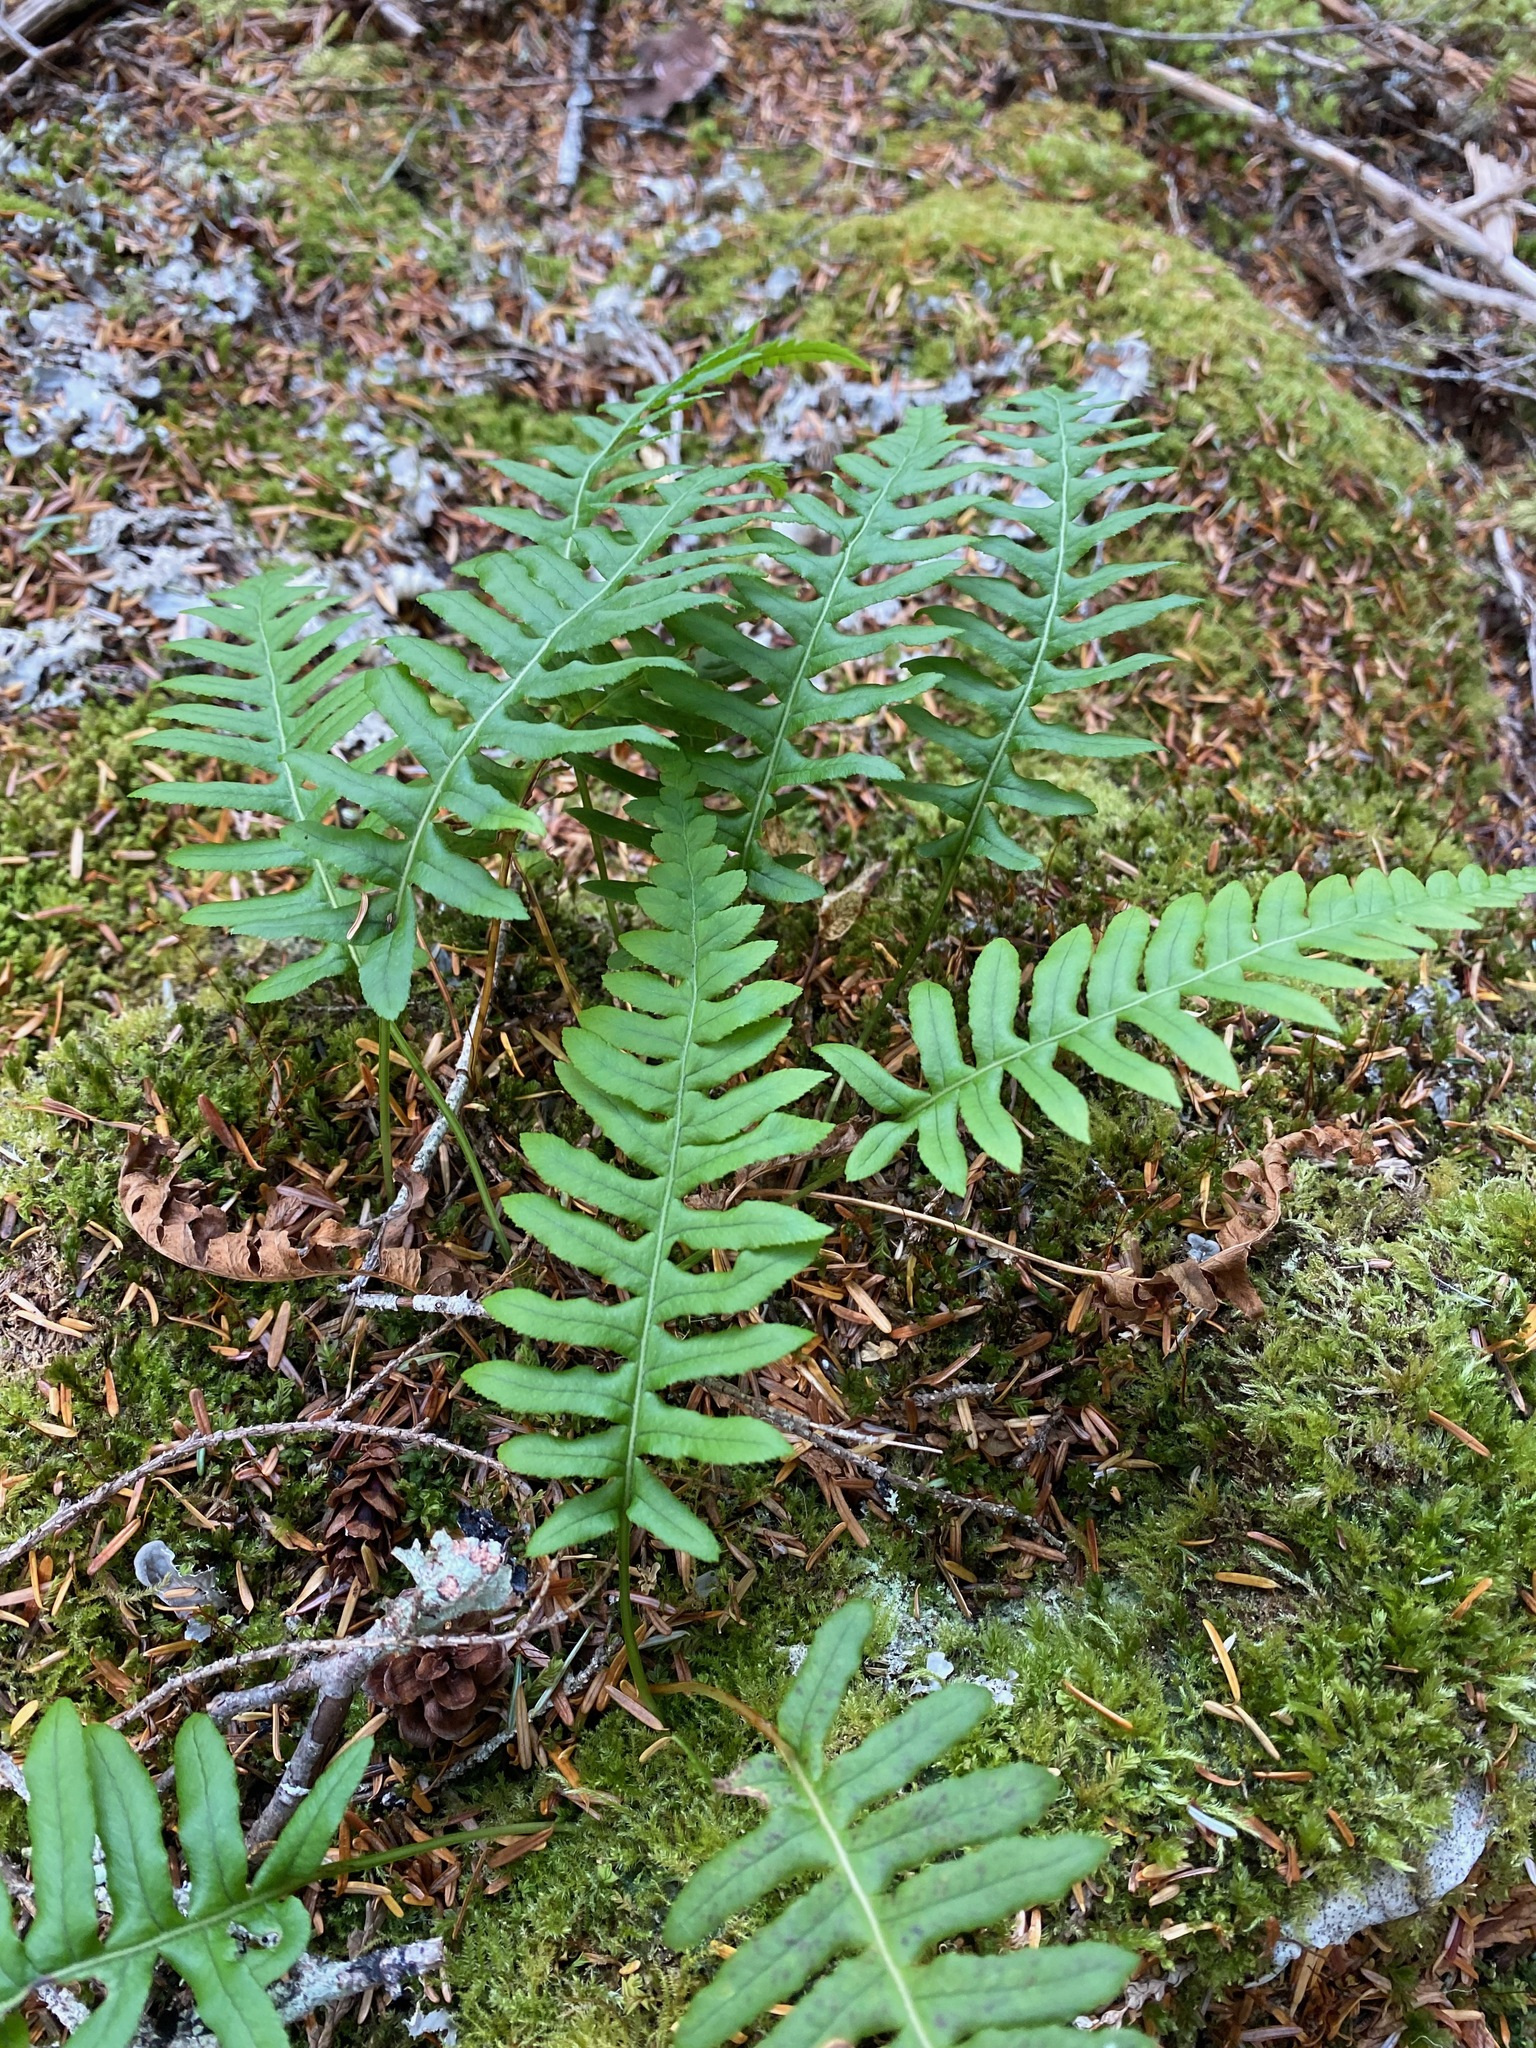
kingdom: Plantae
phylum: Tracheophyta
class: Polypodiopsida
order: Polypodiales
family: Polypodiaceae
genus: Polypodium
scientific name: Polypodium glycyrrhiza
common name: Licorice fern
